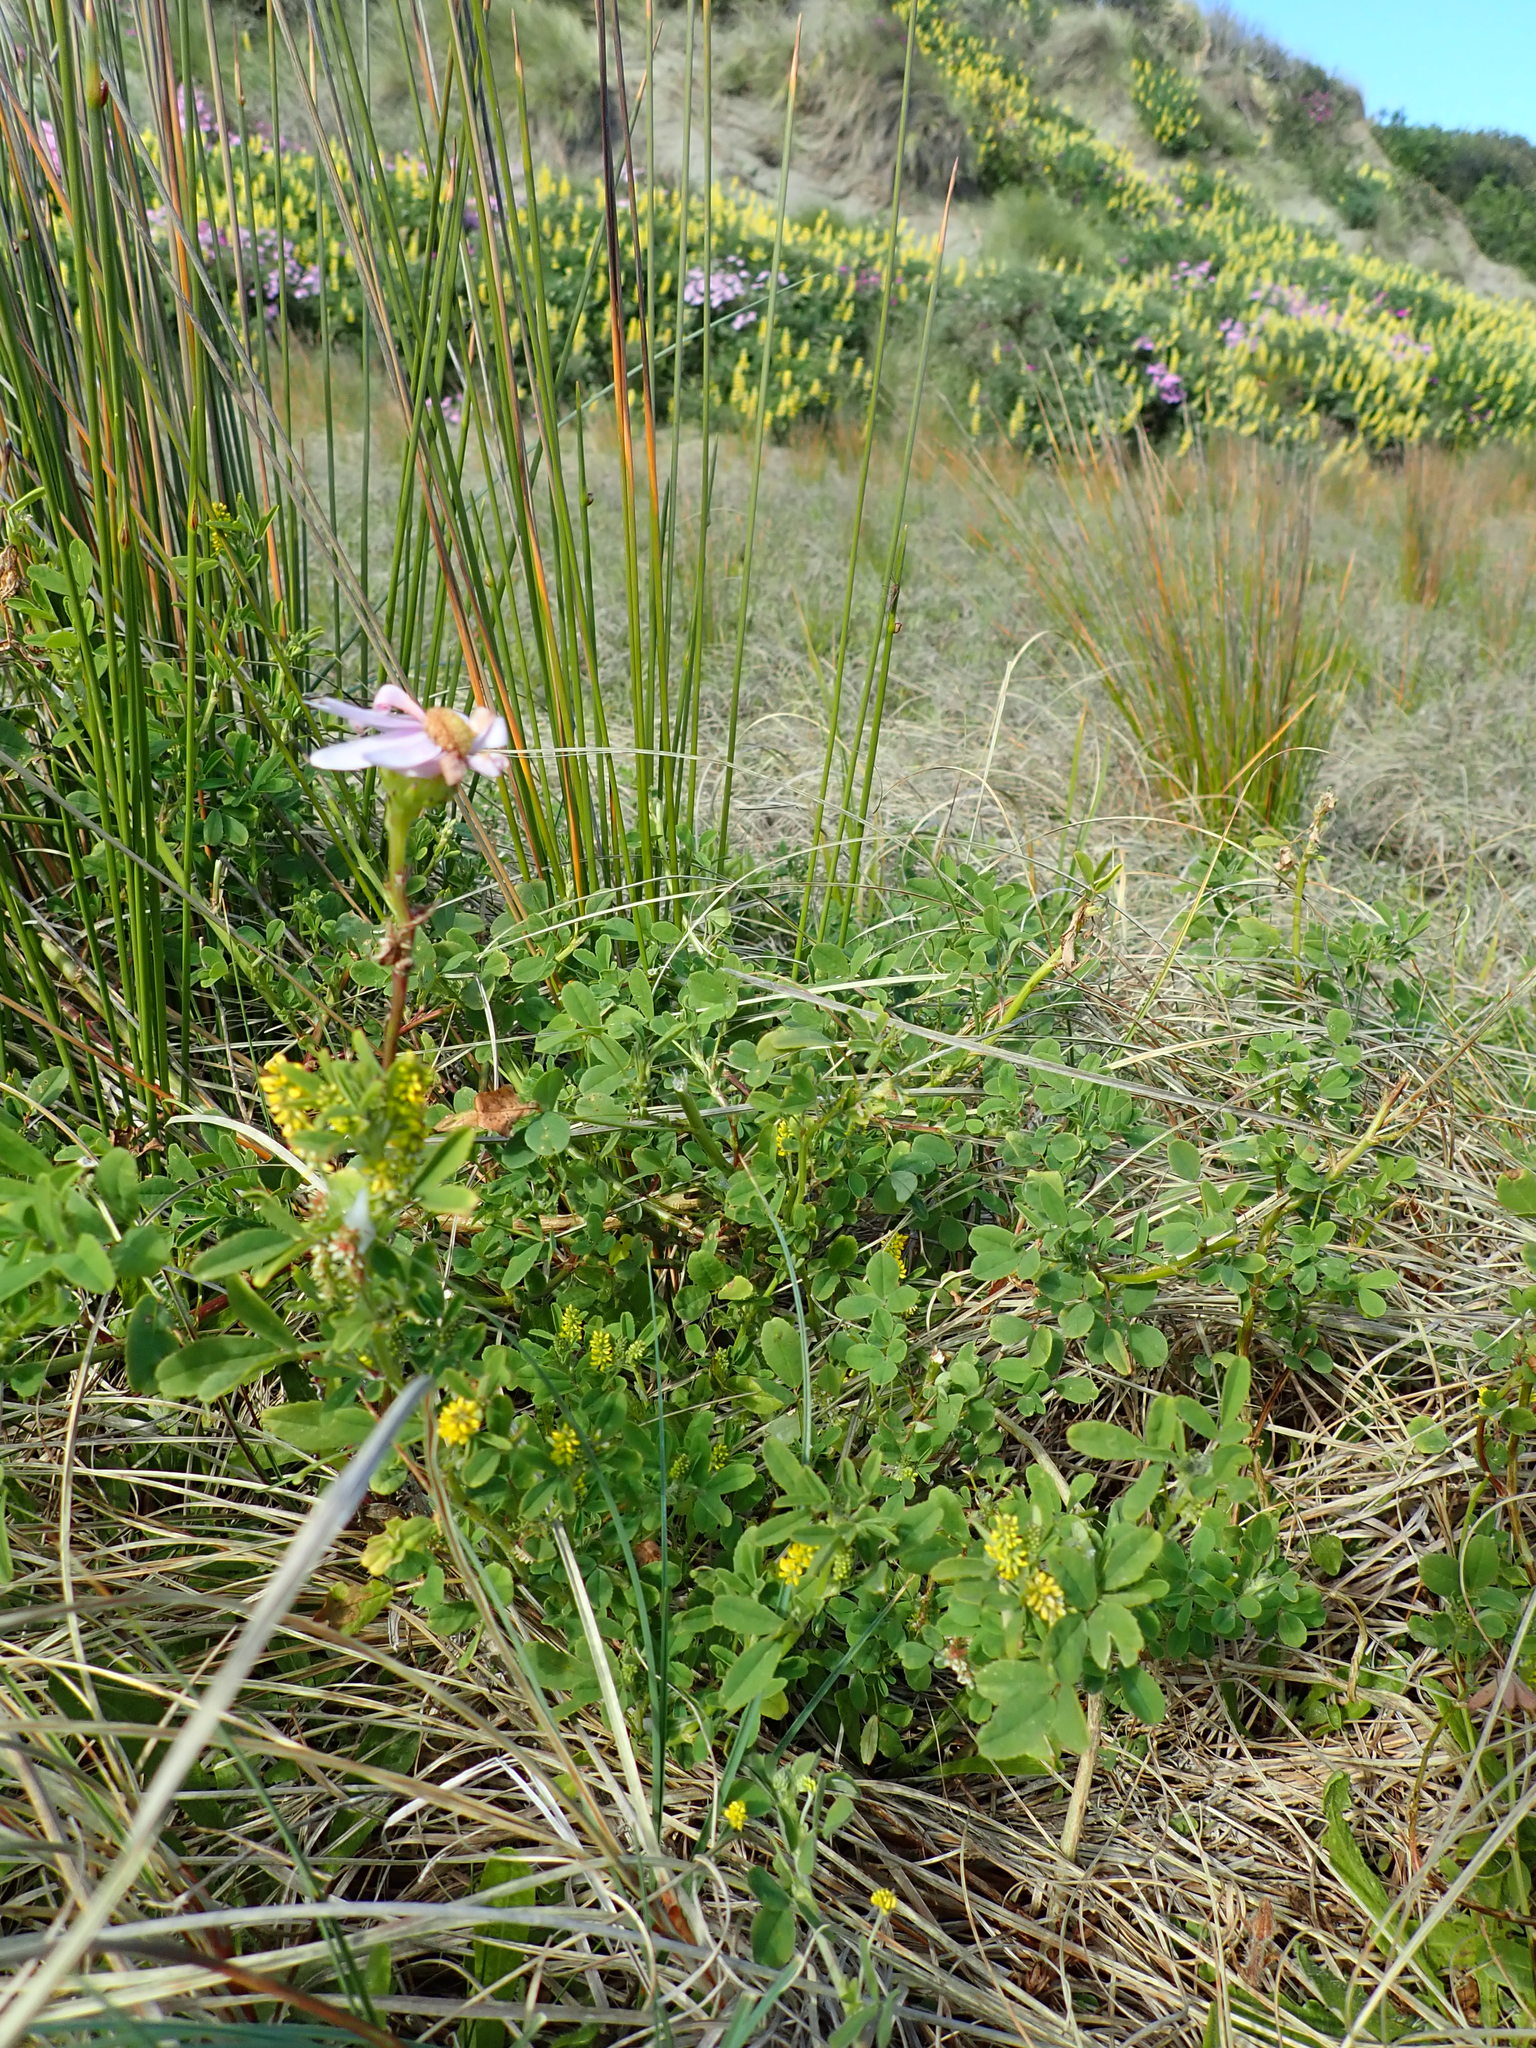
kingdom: Plantae
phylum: Tracheophyta
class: Magnoliopsida
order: Fabales
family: Fabaceae
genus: Melilotus
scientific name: Melilotus indicus
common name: Small melilot
